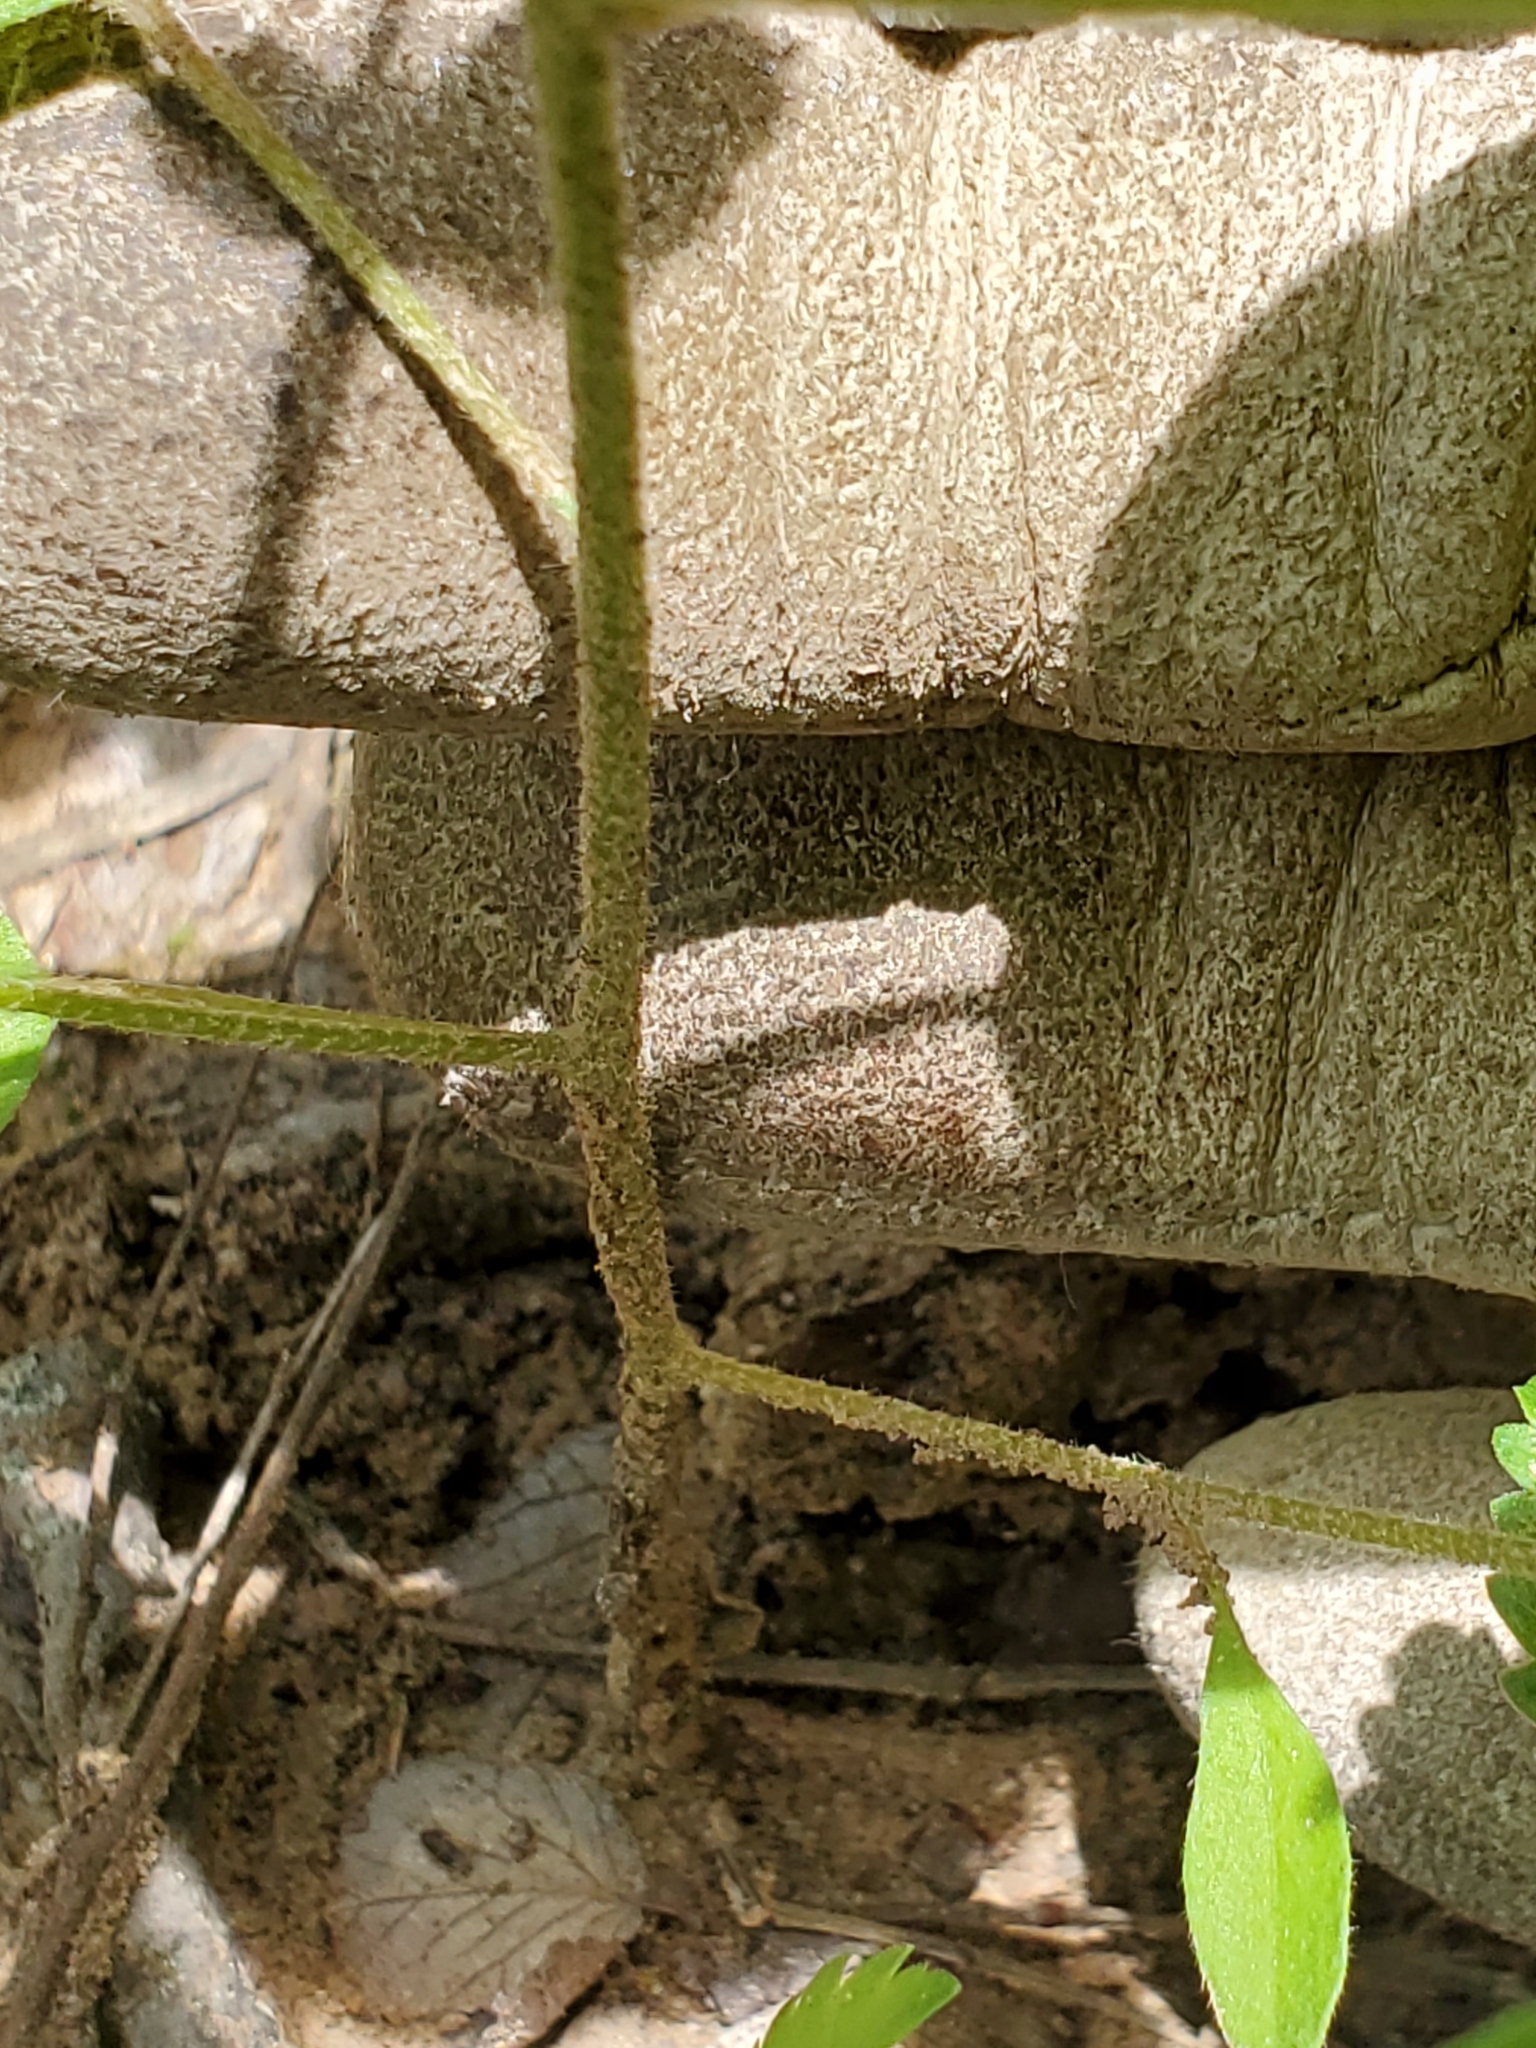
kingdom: Plantae
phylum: Tracheophyta
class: Magnoliopsida
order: Malpighiales
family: Euphorbiaceae
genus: Croton
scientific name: Croton glandulosus
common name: Tropic croton
